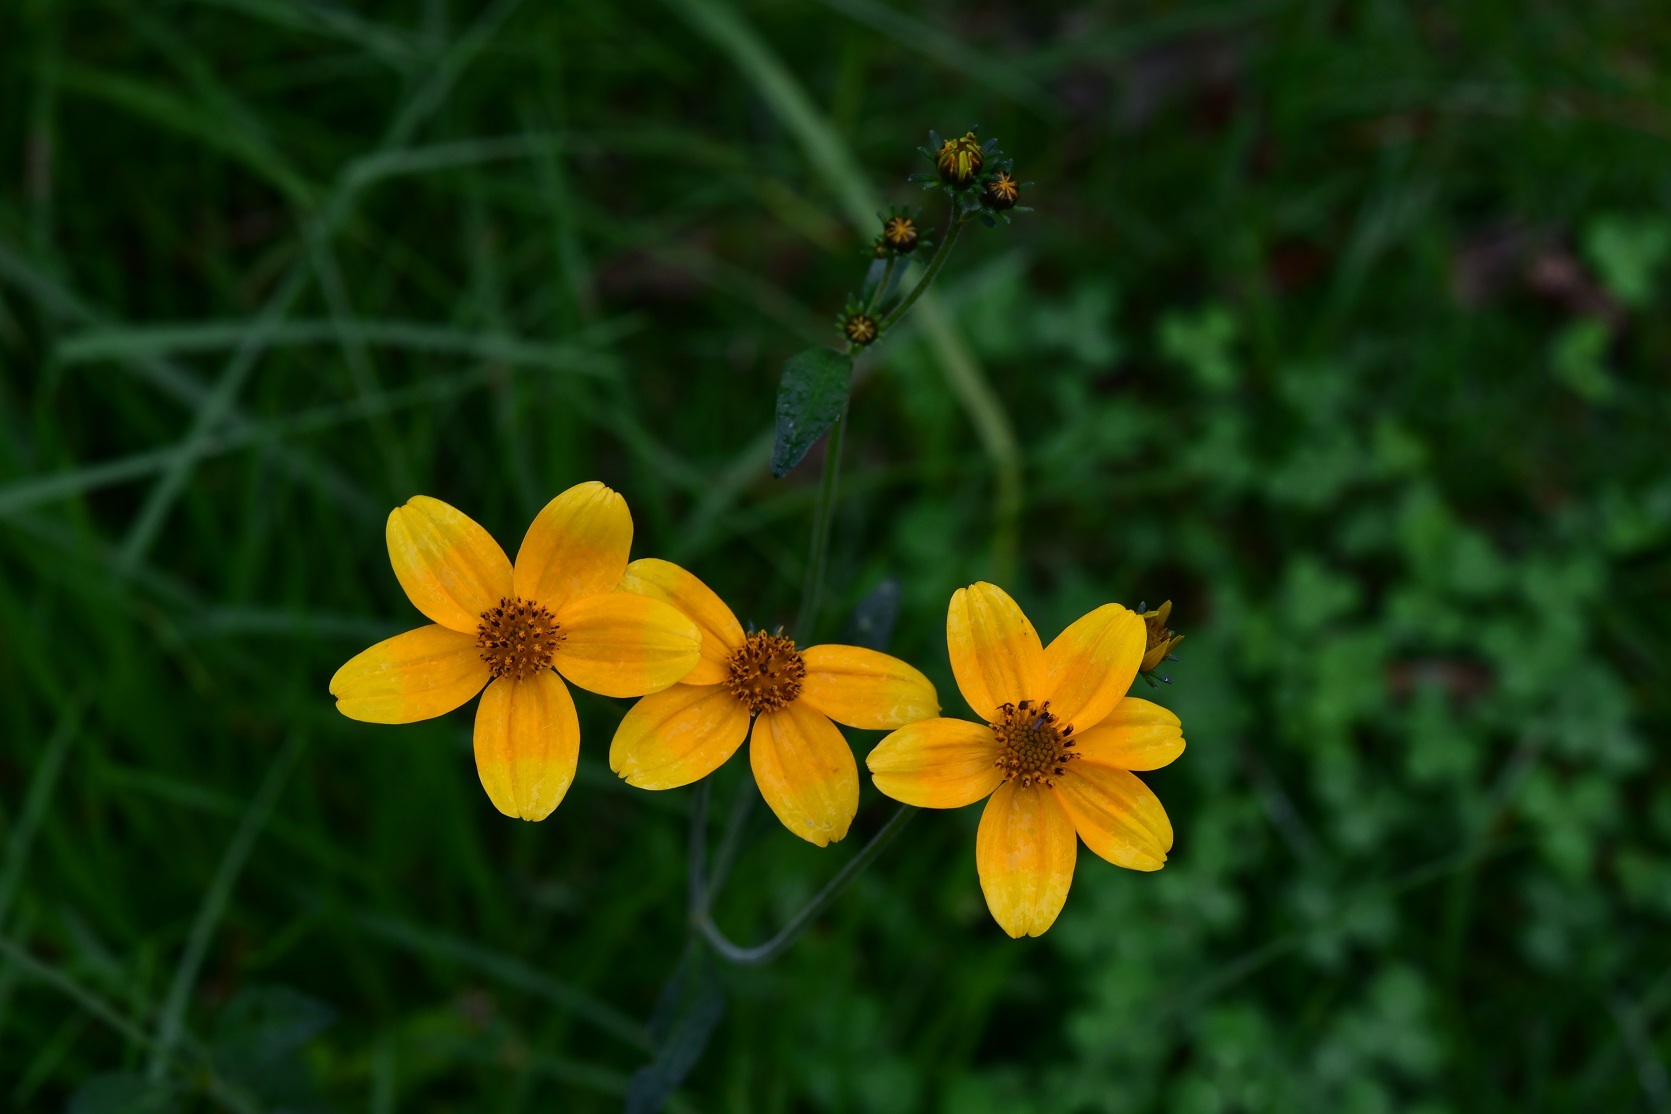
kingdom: Plantae
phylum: Tracheophyta
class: Magnoliopsida
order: Asterales
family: Asteraceae
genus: Bidens
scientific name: Bidens aurea
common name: Arizona beggar-ticks
